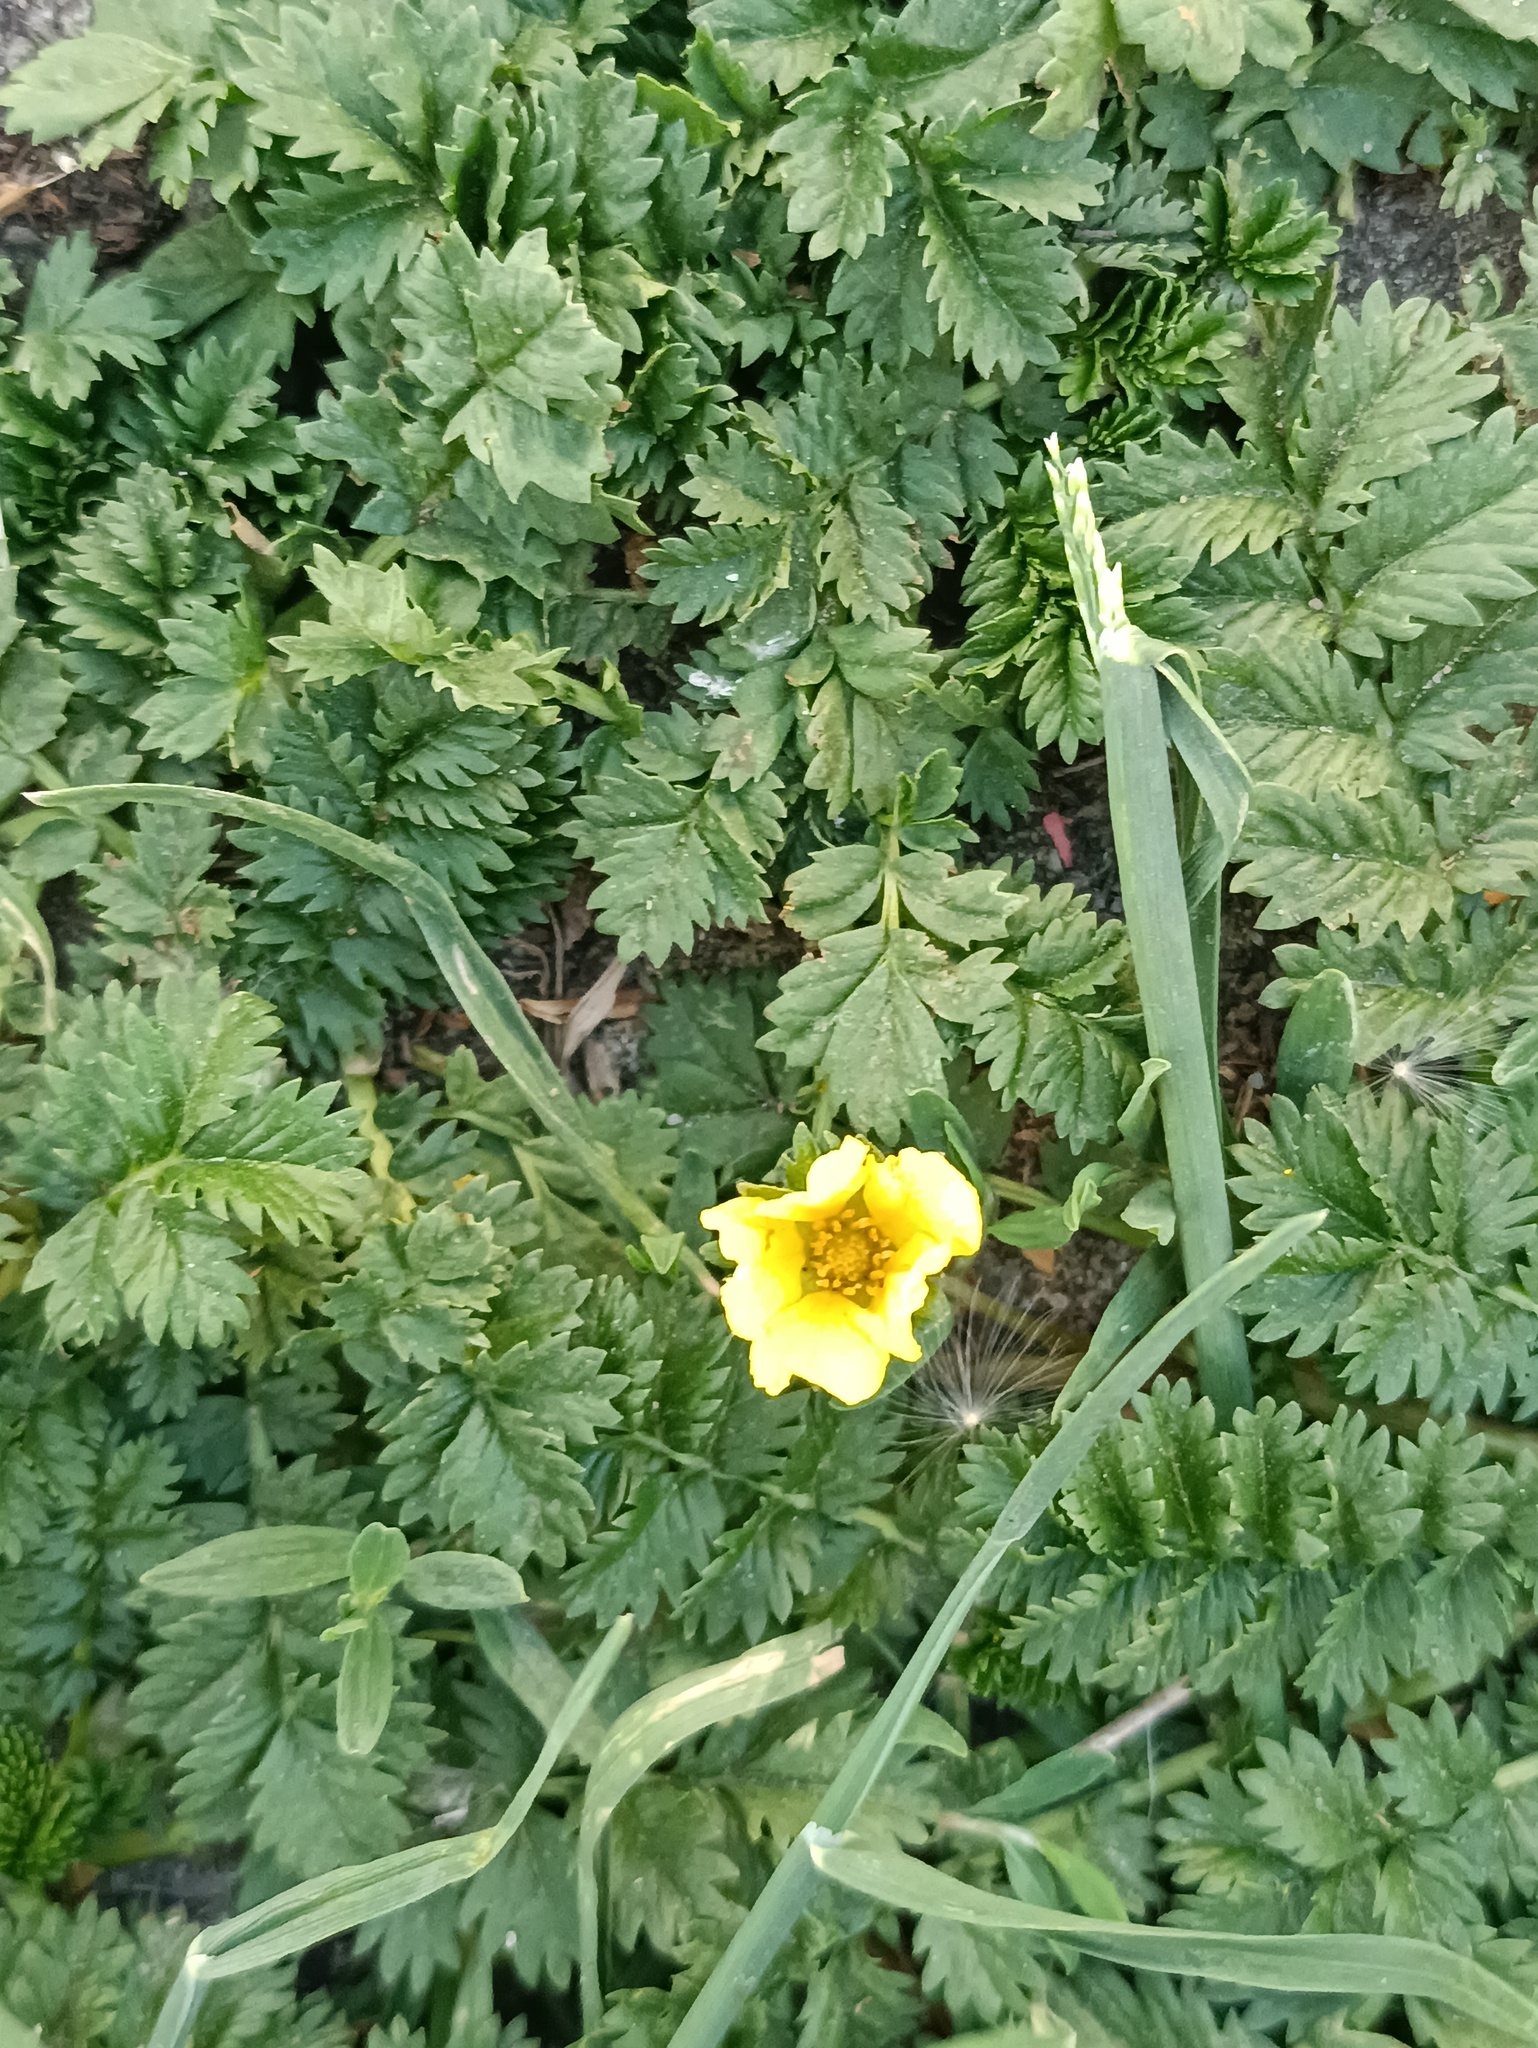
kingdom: Plantae
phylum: Tracheophyta
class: Magnoliopsida
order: Rosales
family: Rosaceae
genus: Argentina
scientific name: Argentina anserina
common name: Common silverweed
